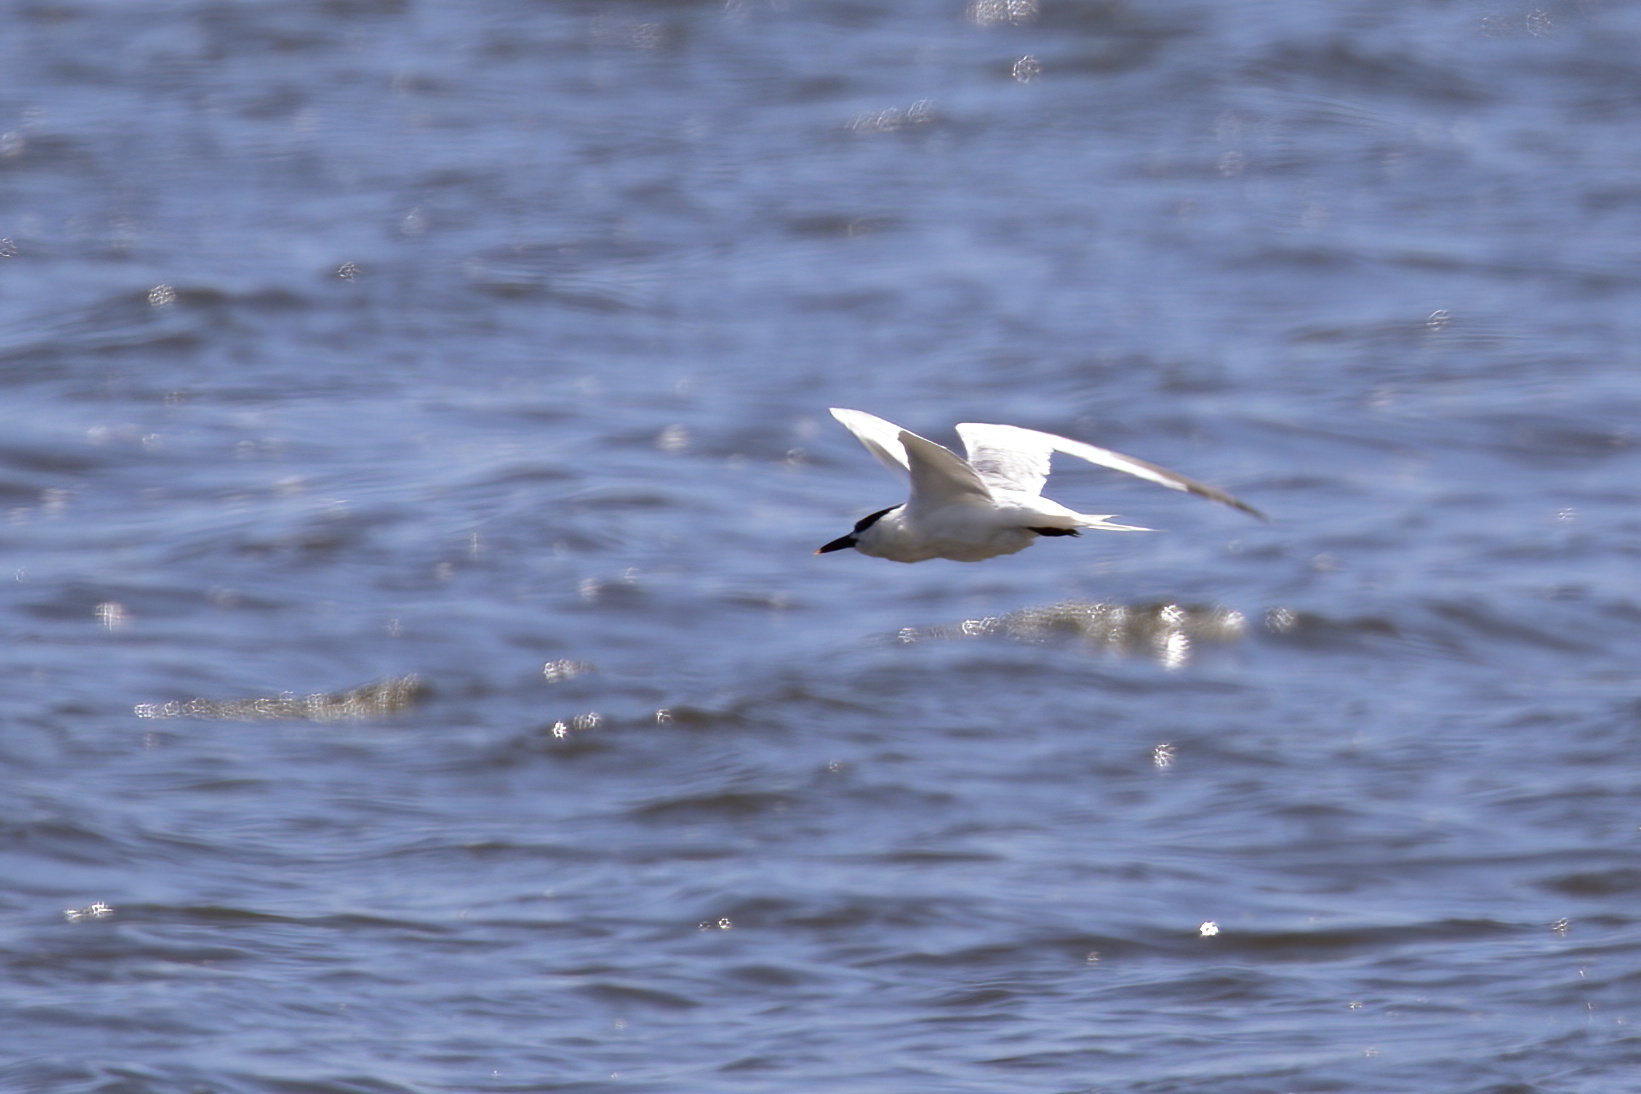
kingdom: Animalia
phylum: Chordata
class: Aves
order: Charadriiformes
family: Laridae
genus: Thalasseus
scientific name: Thalasseus sandvicensis
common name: Sandwich tern
